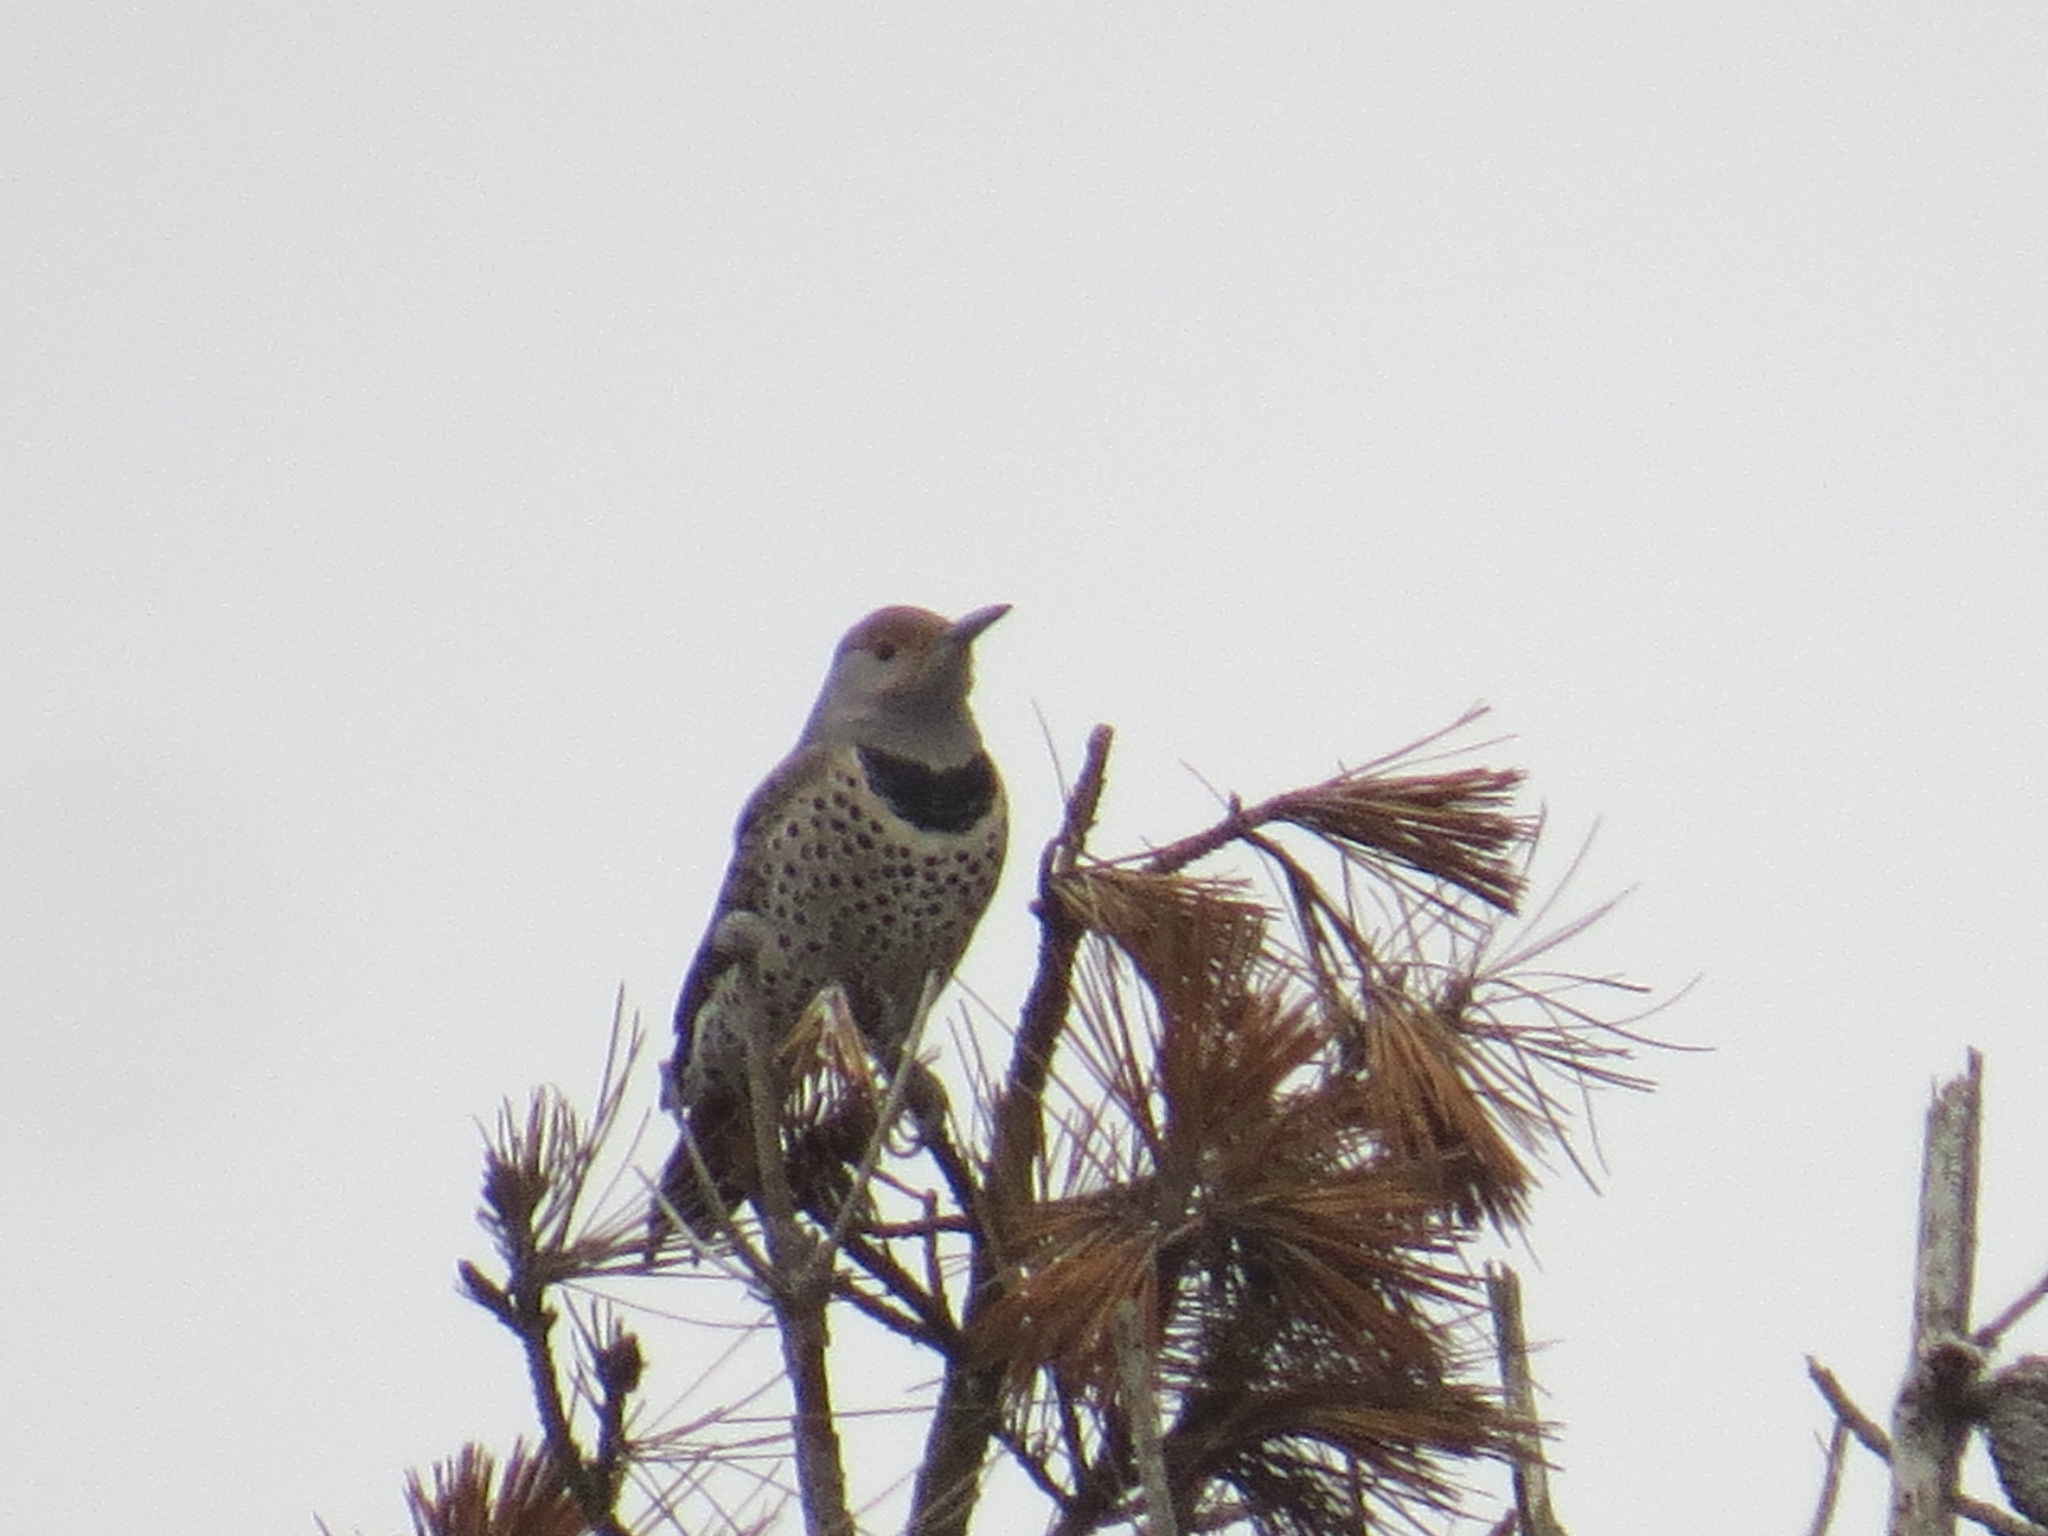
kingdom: Animalia
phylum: Chordata
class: Aves
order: Piciformes
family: Picidae
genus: Colaptes
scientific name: Colaptes auratus
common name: Northern flicker
